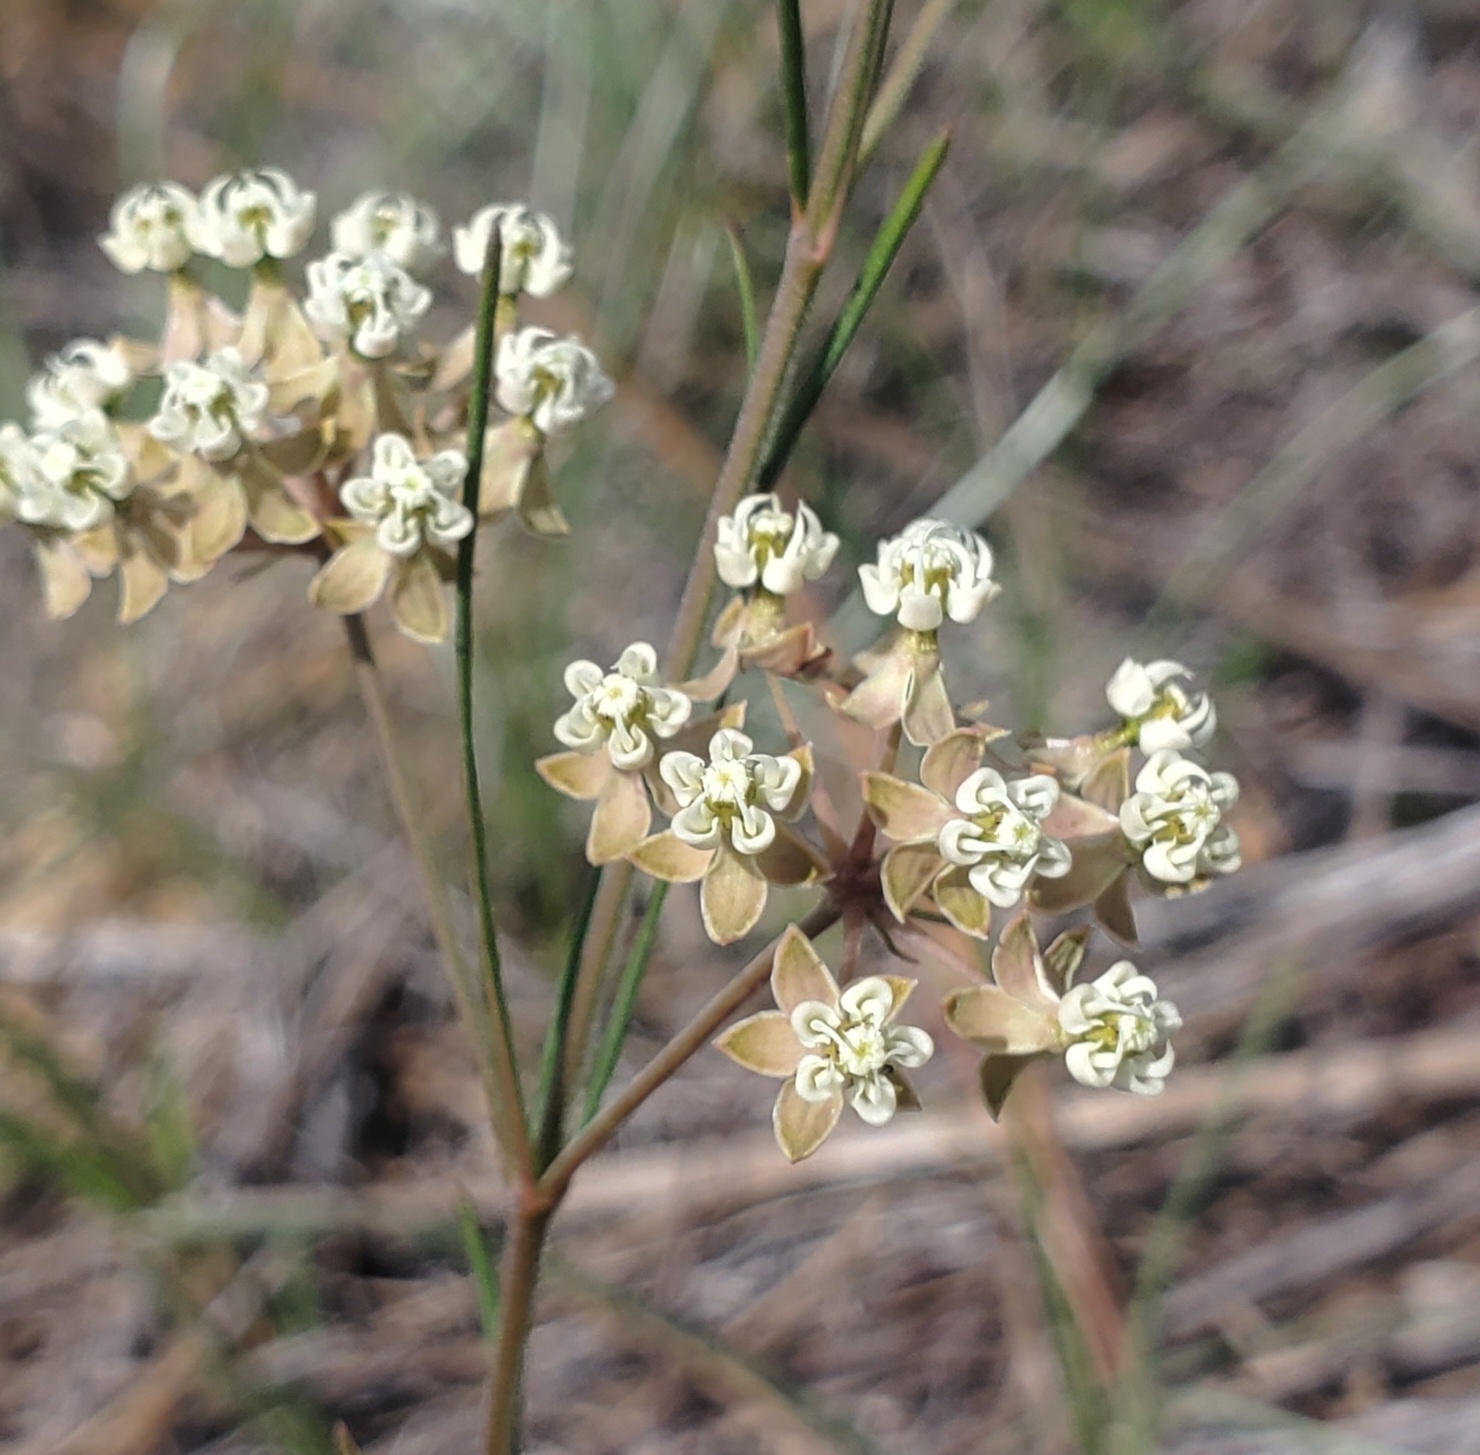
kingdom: Plantae
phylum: Tracheophyta
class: Magnoliopsida
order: Gentianales
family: Apocynaceae
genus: Asclepias
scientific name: Asclepias verticillata
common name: Eastern whorled milkweed
